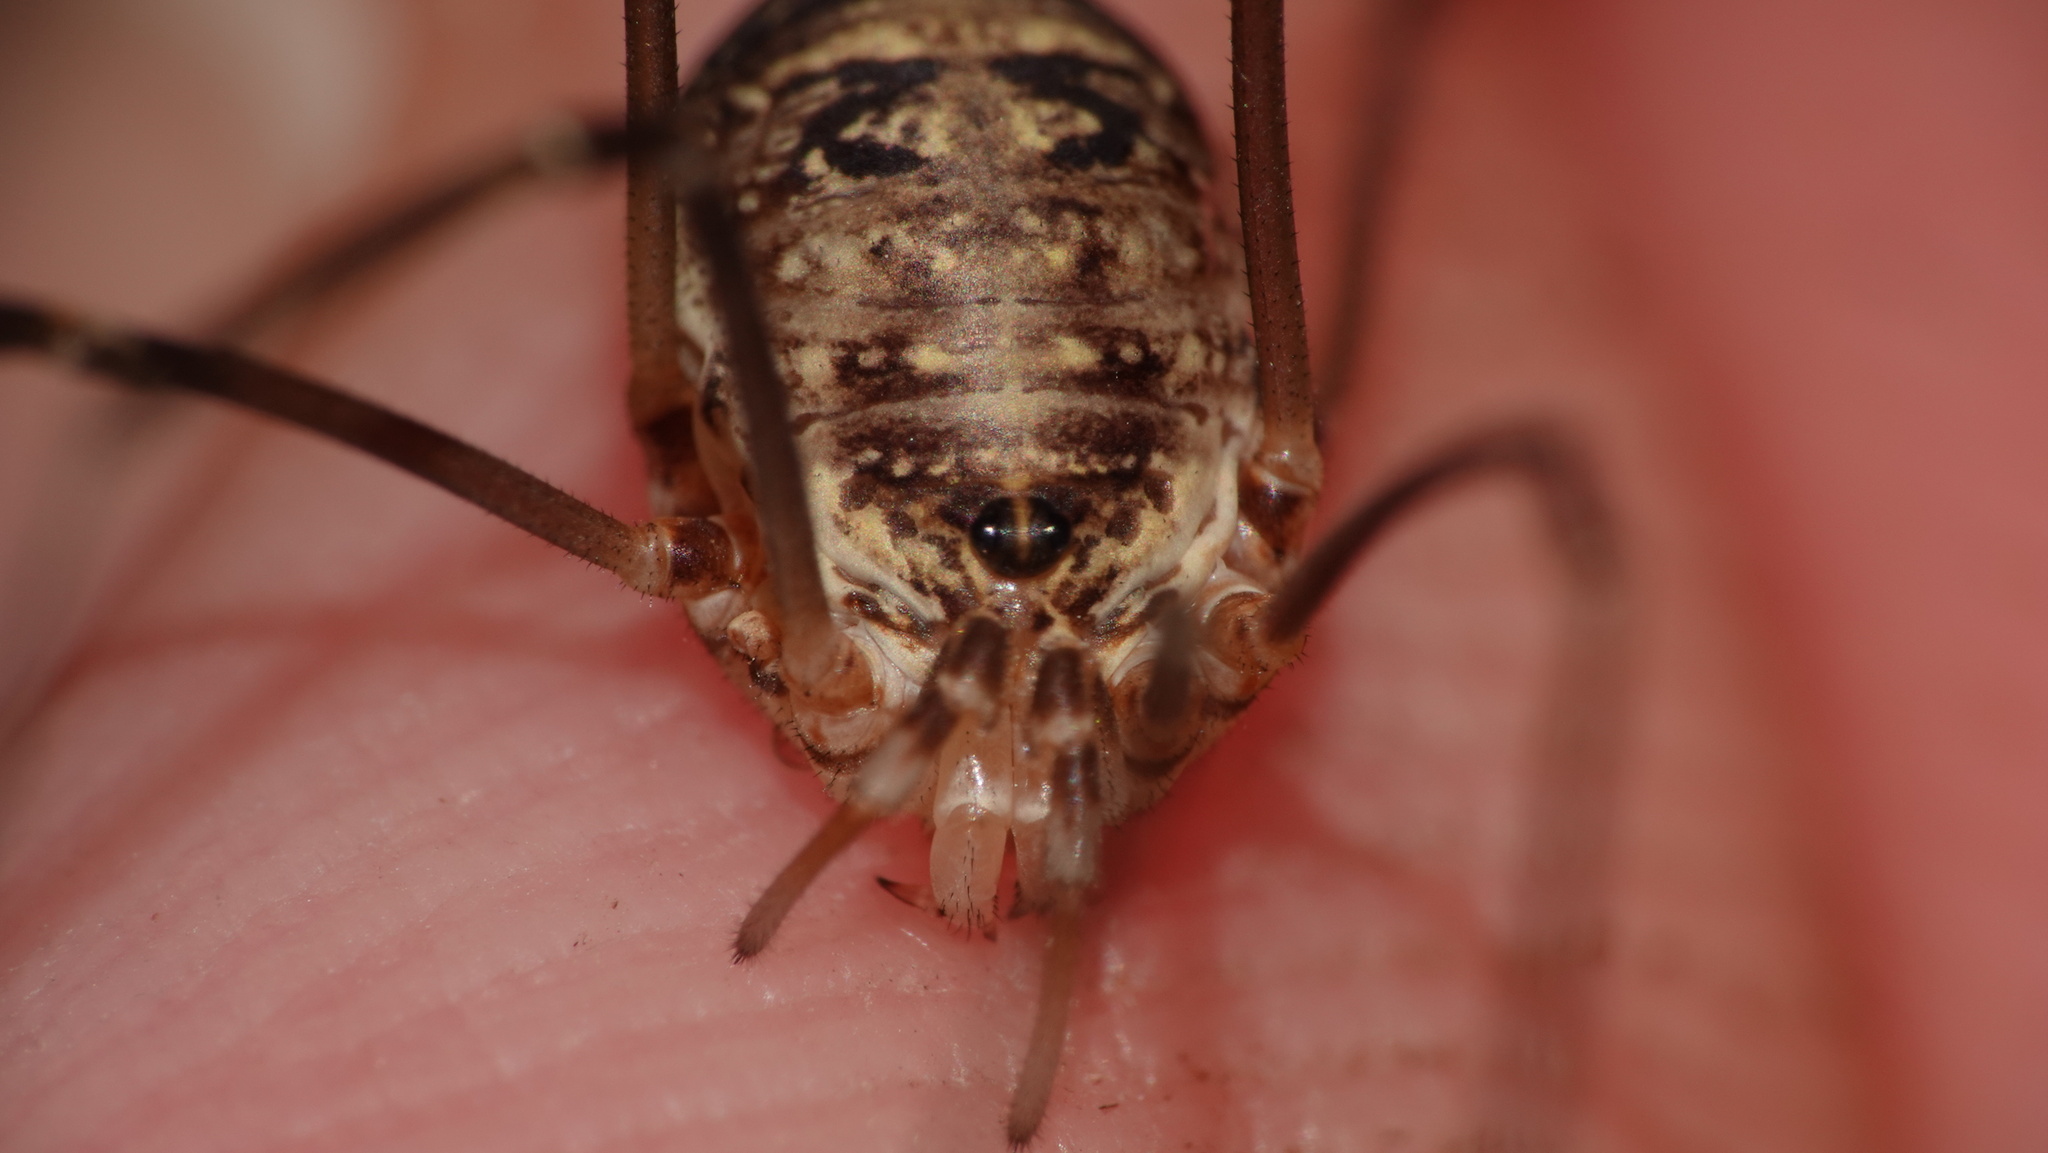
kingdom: Animalia
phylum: Arthropoda
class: Arachnida
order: Opiliones
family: Phalangiidae
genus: Amilenus
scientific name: Amilenus aurantiacus
